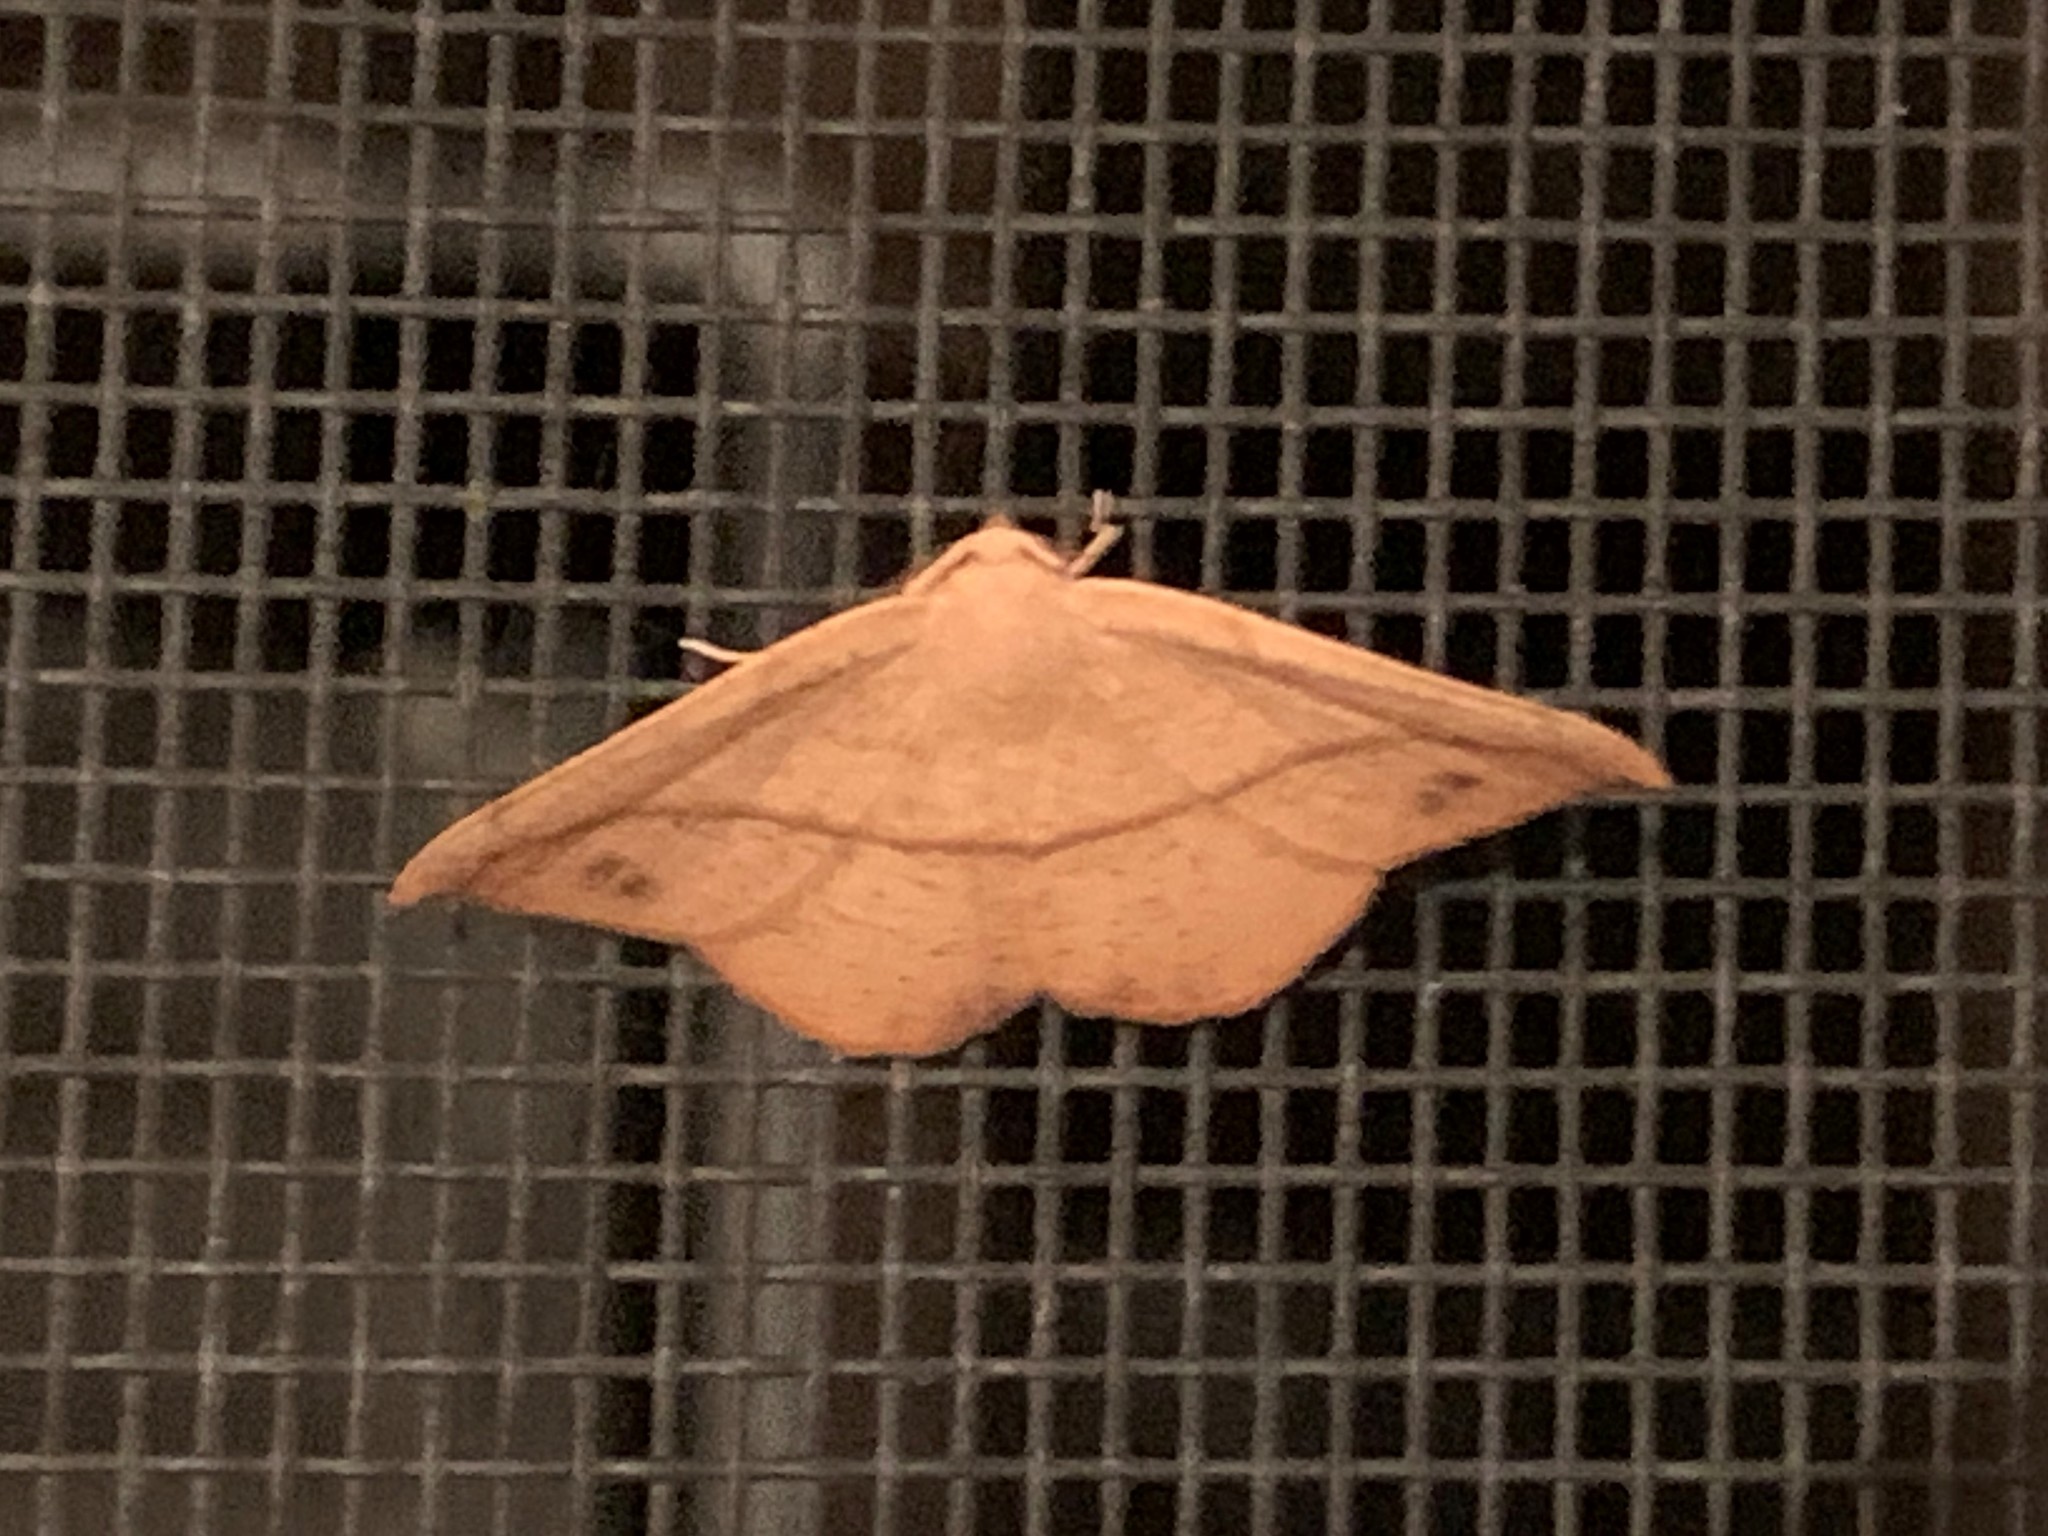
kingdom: Animalia
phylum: Arthropoda
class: Insecta
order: Lepidoptera
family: Geometridae
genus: Patalene
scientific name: Patalene olyzonaria
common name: Juniper geometer moth
